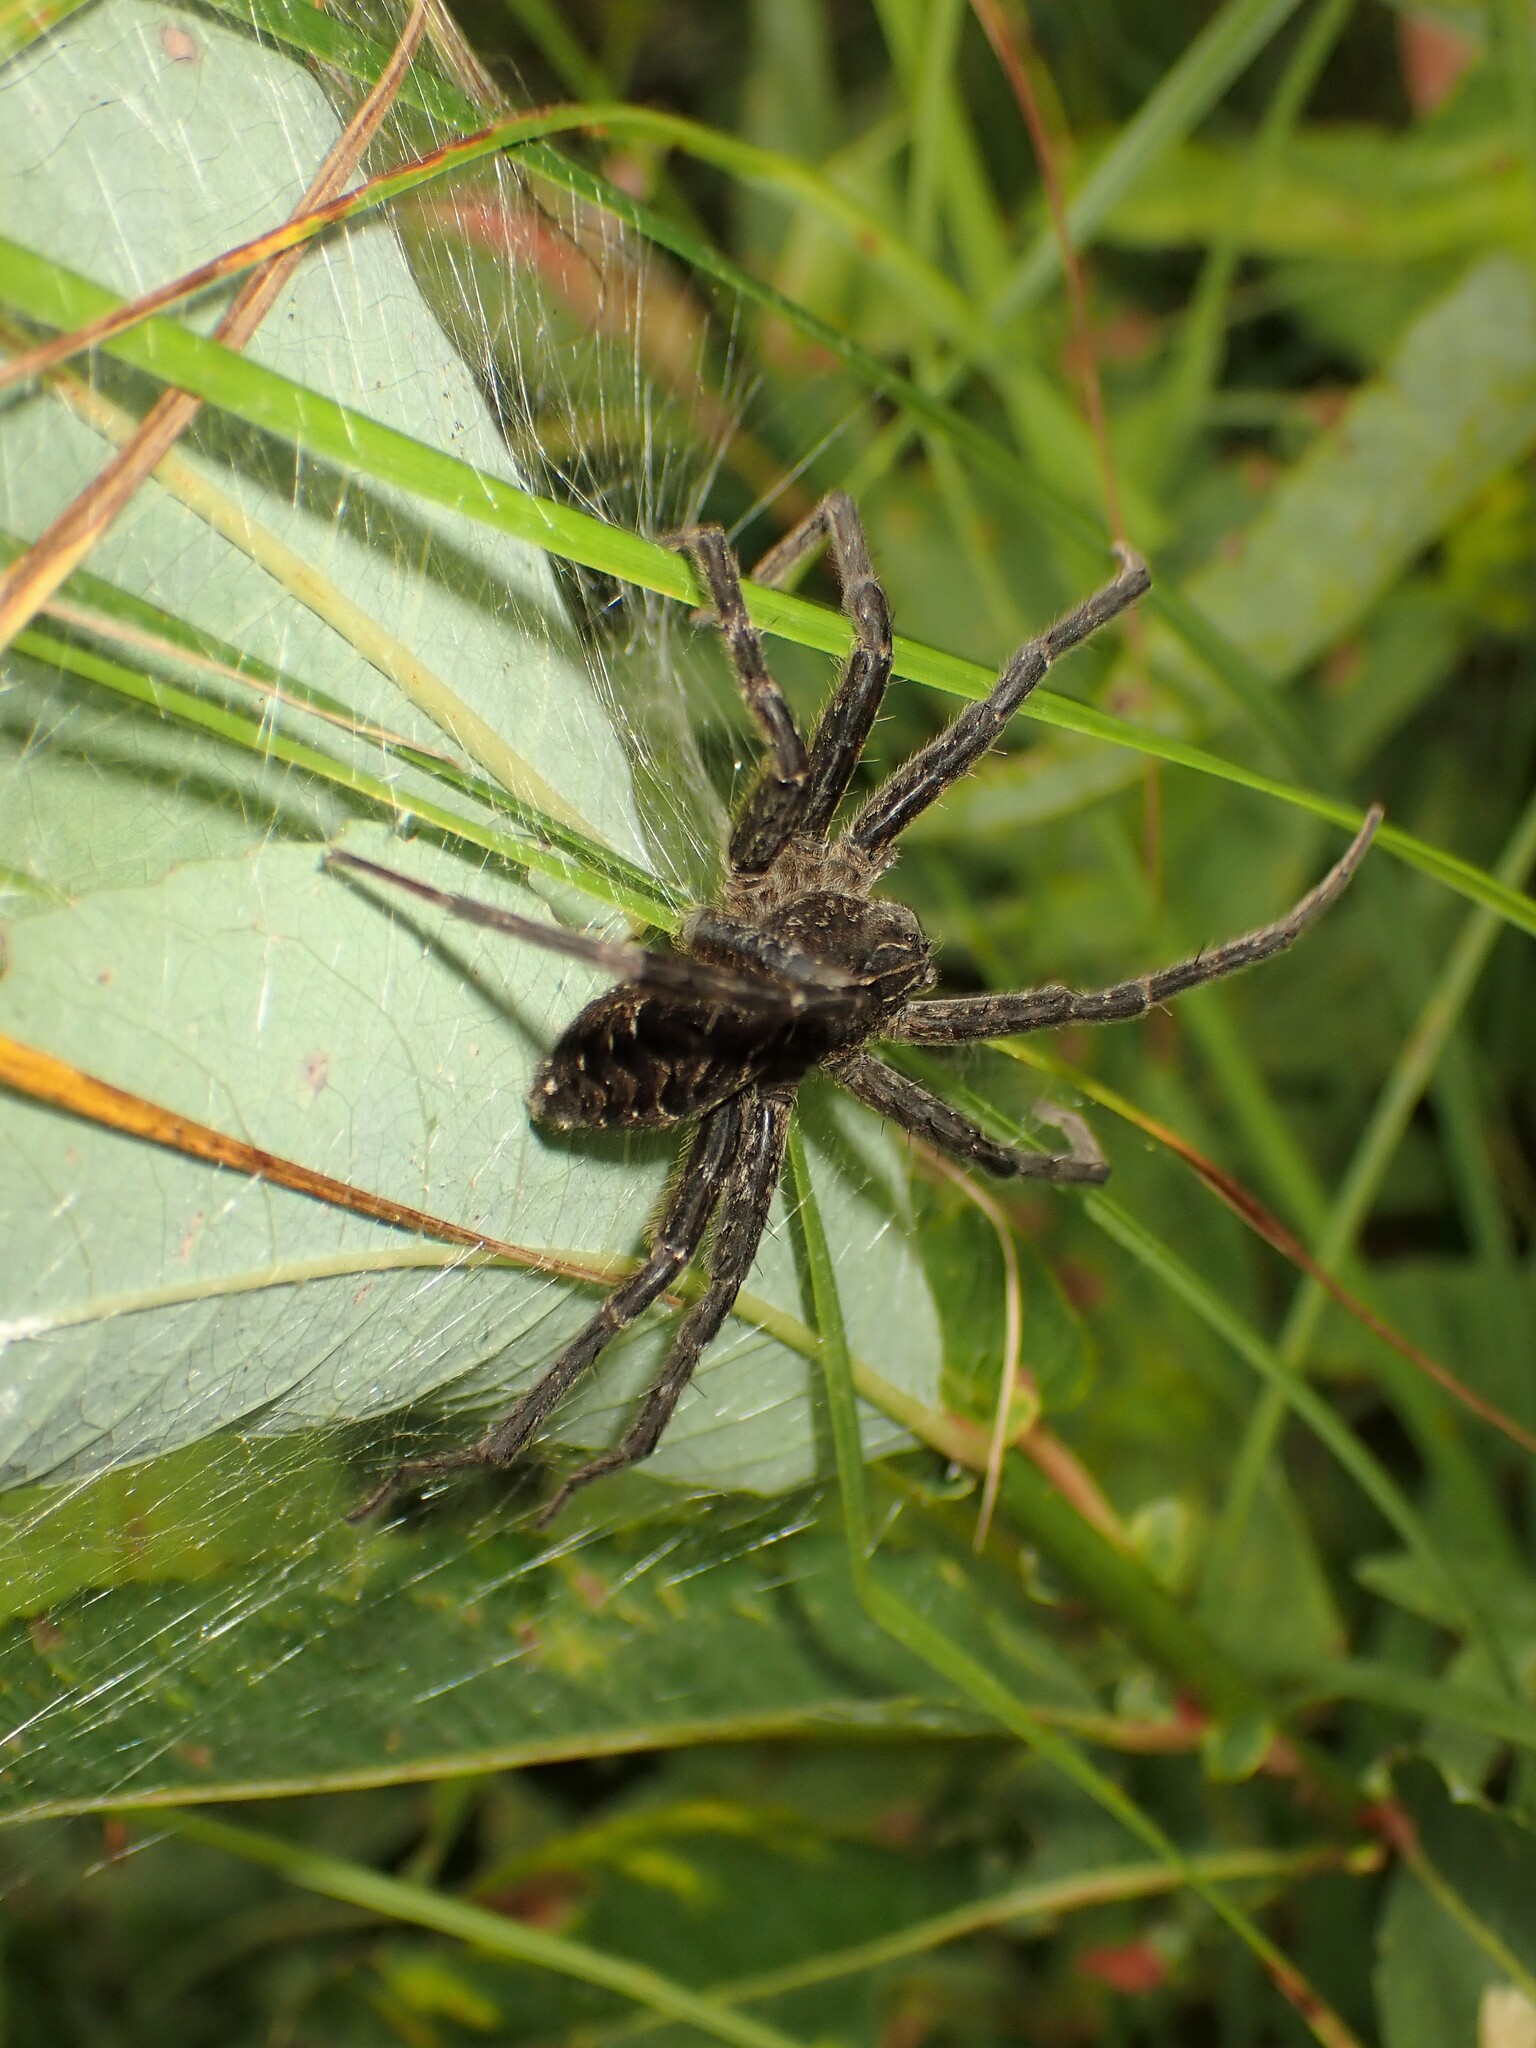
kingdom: Animalia
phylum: Arthropoda
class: Arachnida
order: Araneae
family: Pisauridae
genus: Dolomedes
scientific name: Dolomedes scriptus
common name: Striped fishing spider
